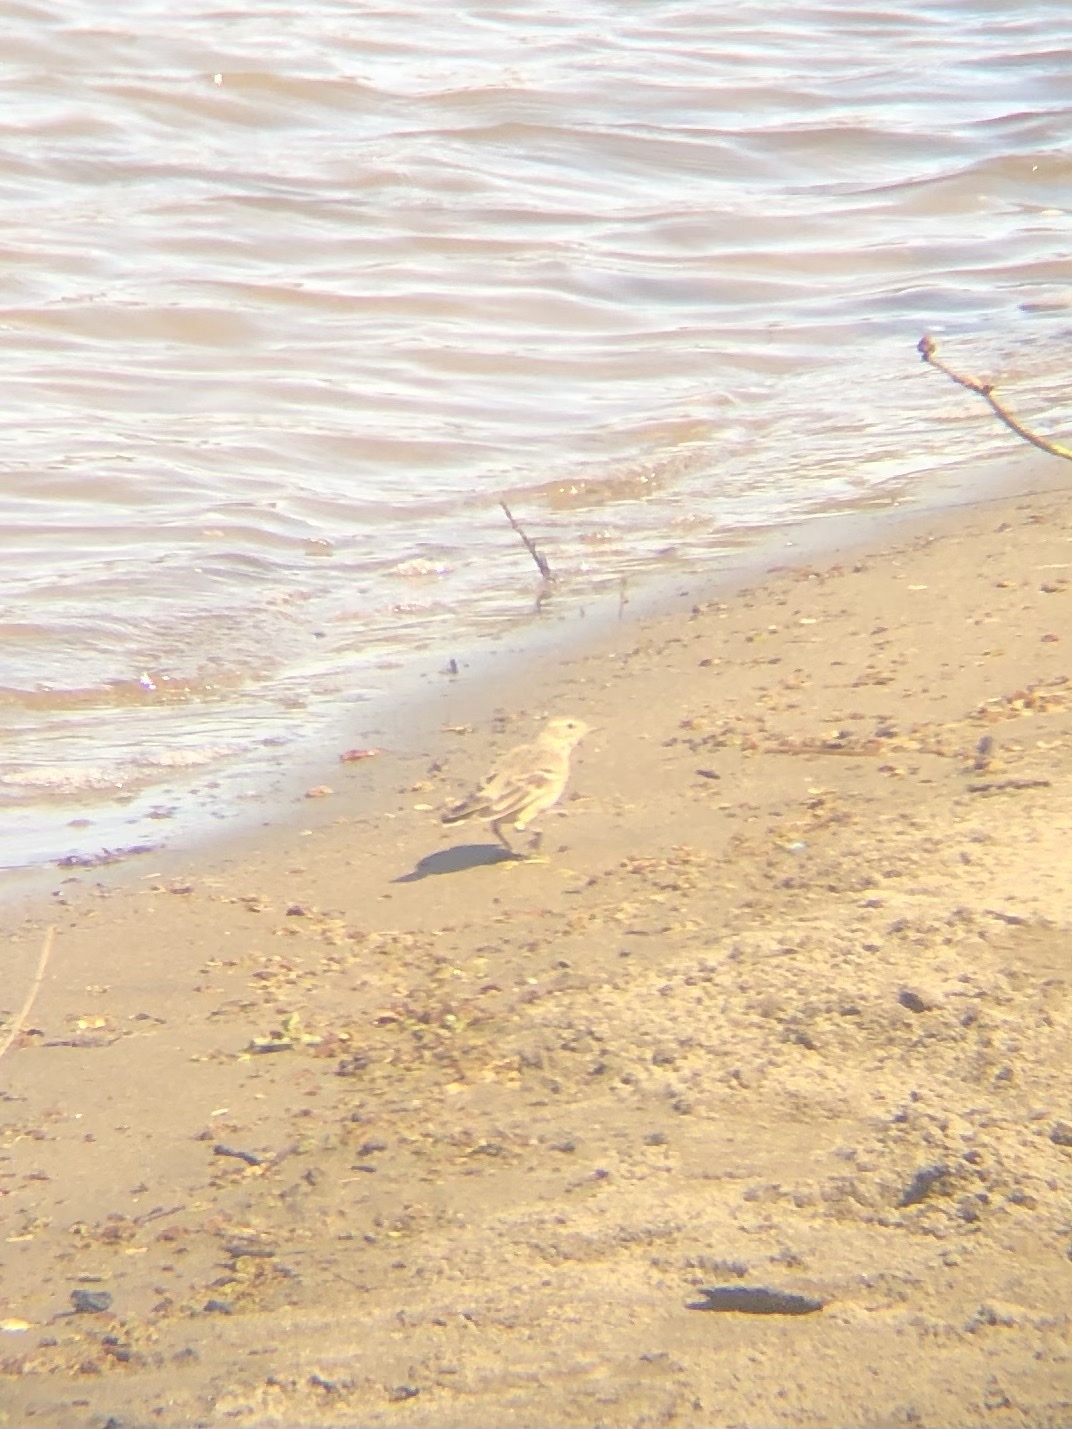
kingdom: Animalia
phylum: Chordata
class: Aves
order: Passeriformes
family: Motacillidae
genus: Anthus
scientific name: Anthus rubescens
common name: Buff-bellied pipit
